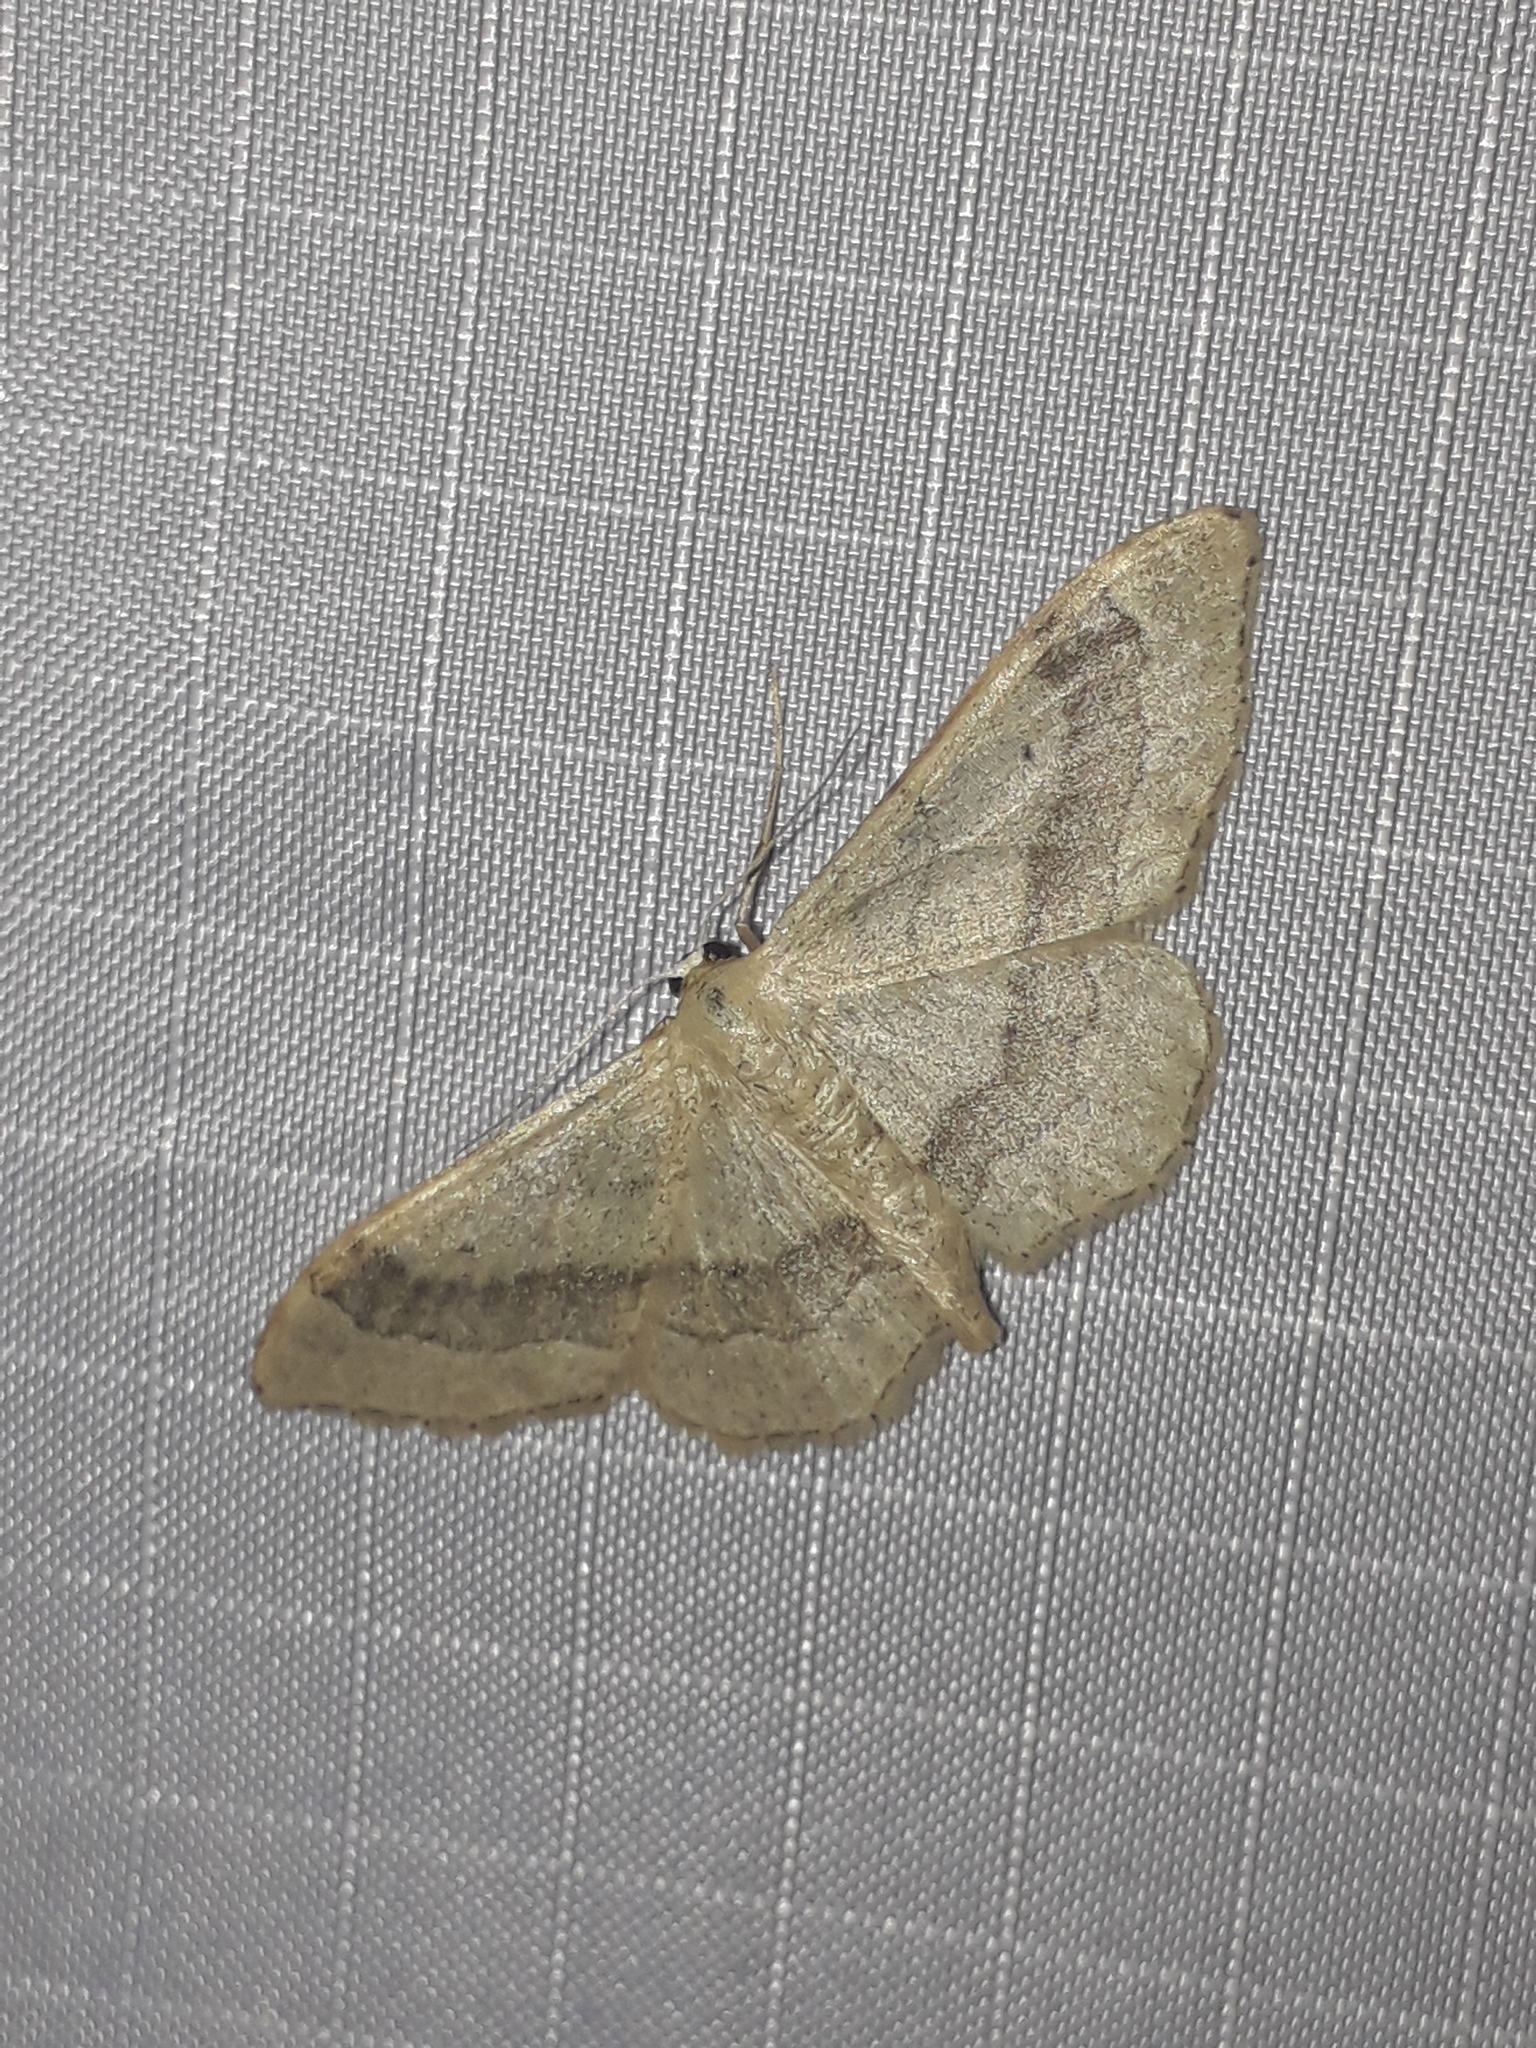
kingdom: Animalia
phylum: Arthropoda
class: Insecta
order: Lepidoptera
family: Geometridae
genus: Idaea
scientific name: Idaea aversata
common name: Riband wave
